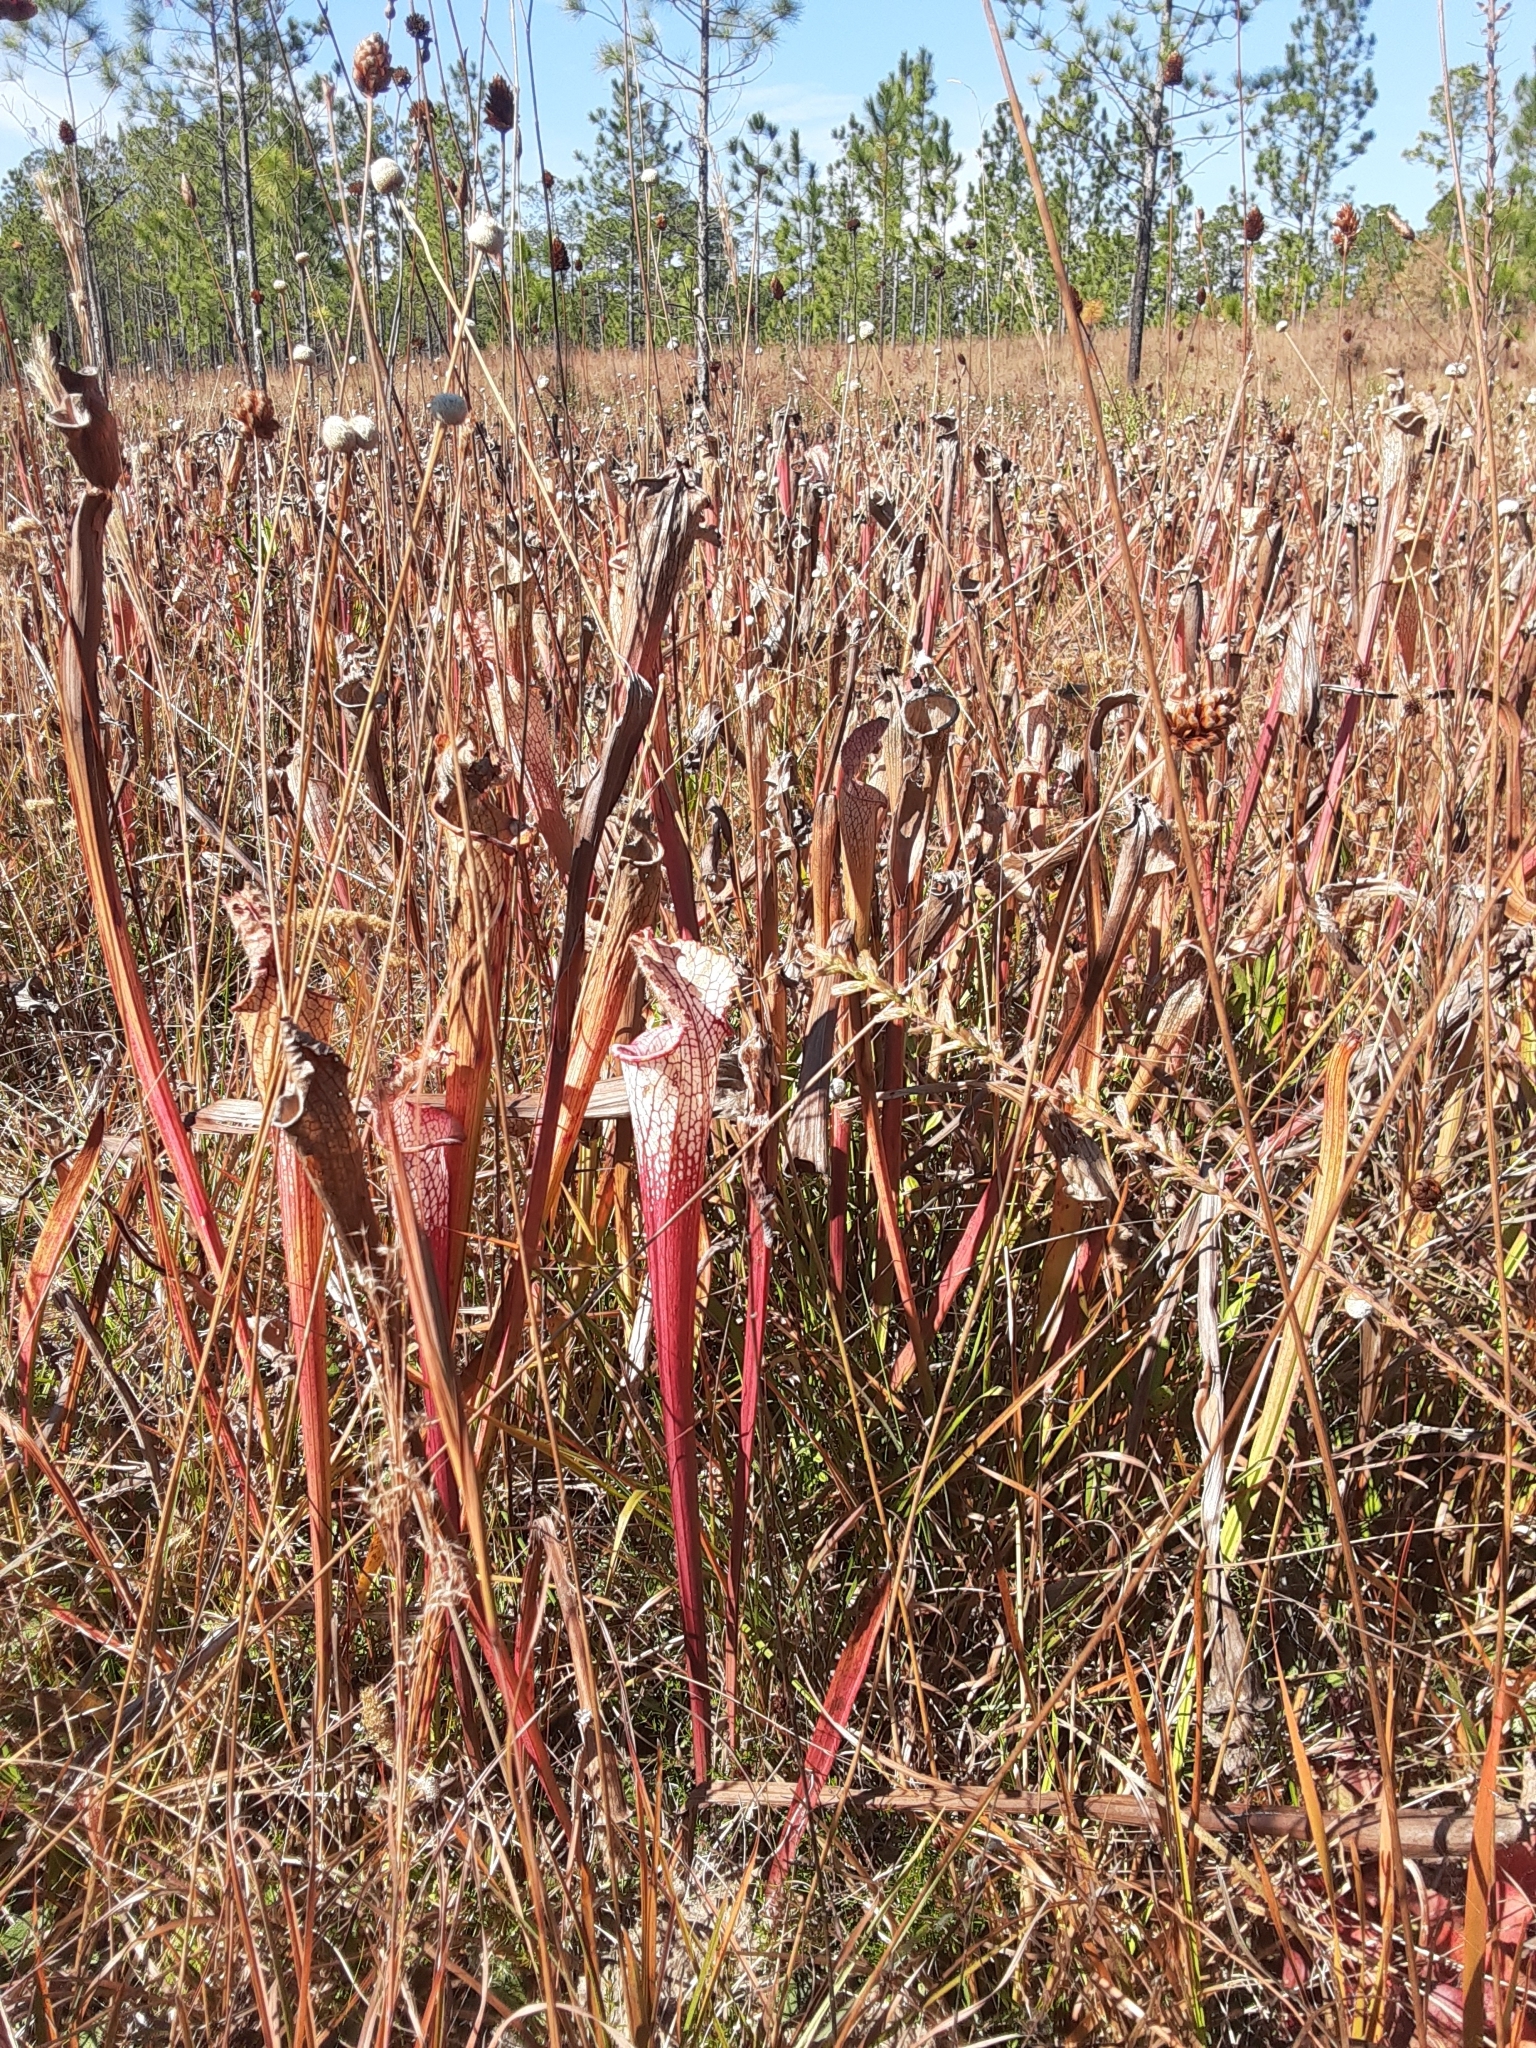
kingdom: Plantae
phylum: Tracheophyta
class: Magnoliopsida
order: Ericales
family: Sarraceniaceae
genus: Sarracenia
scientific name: Sarracenia leucophylla
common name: Purple trumpetleaf
